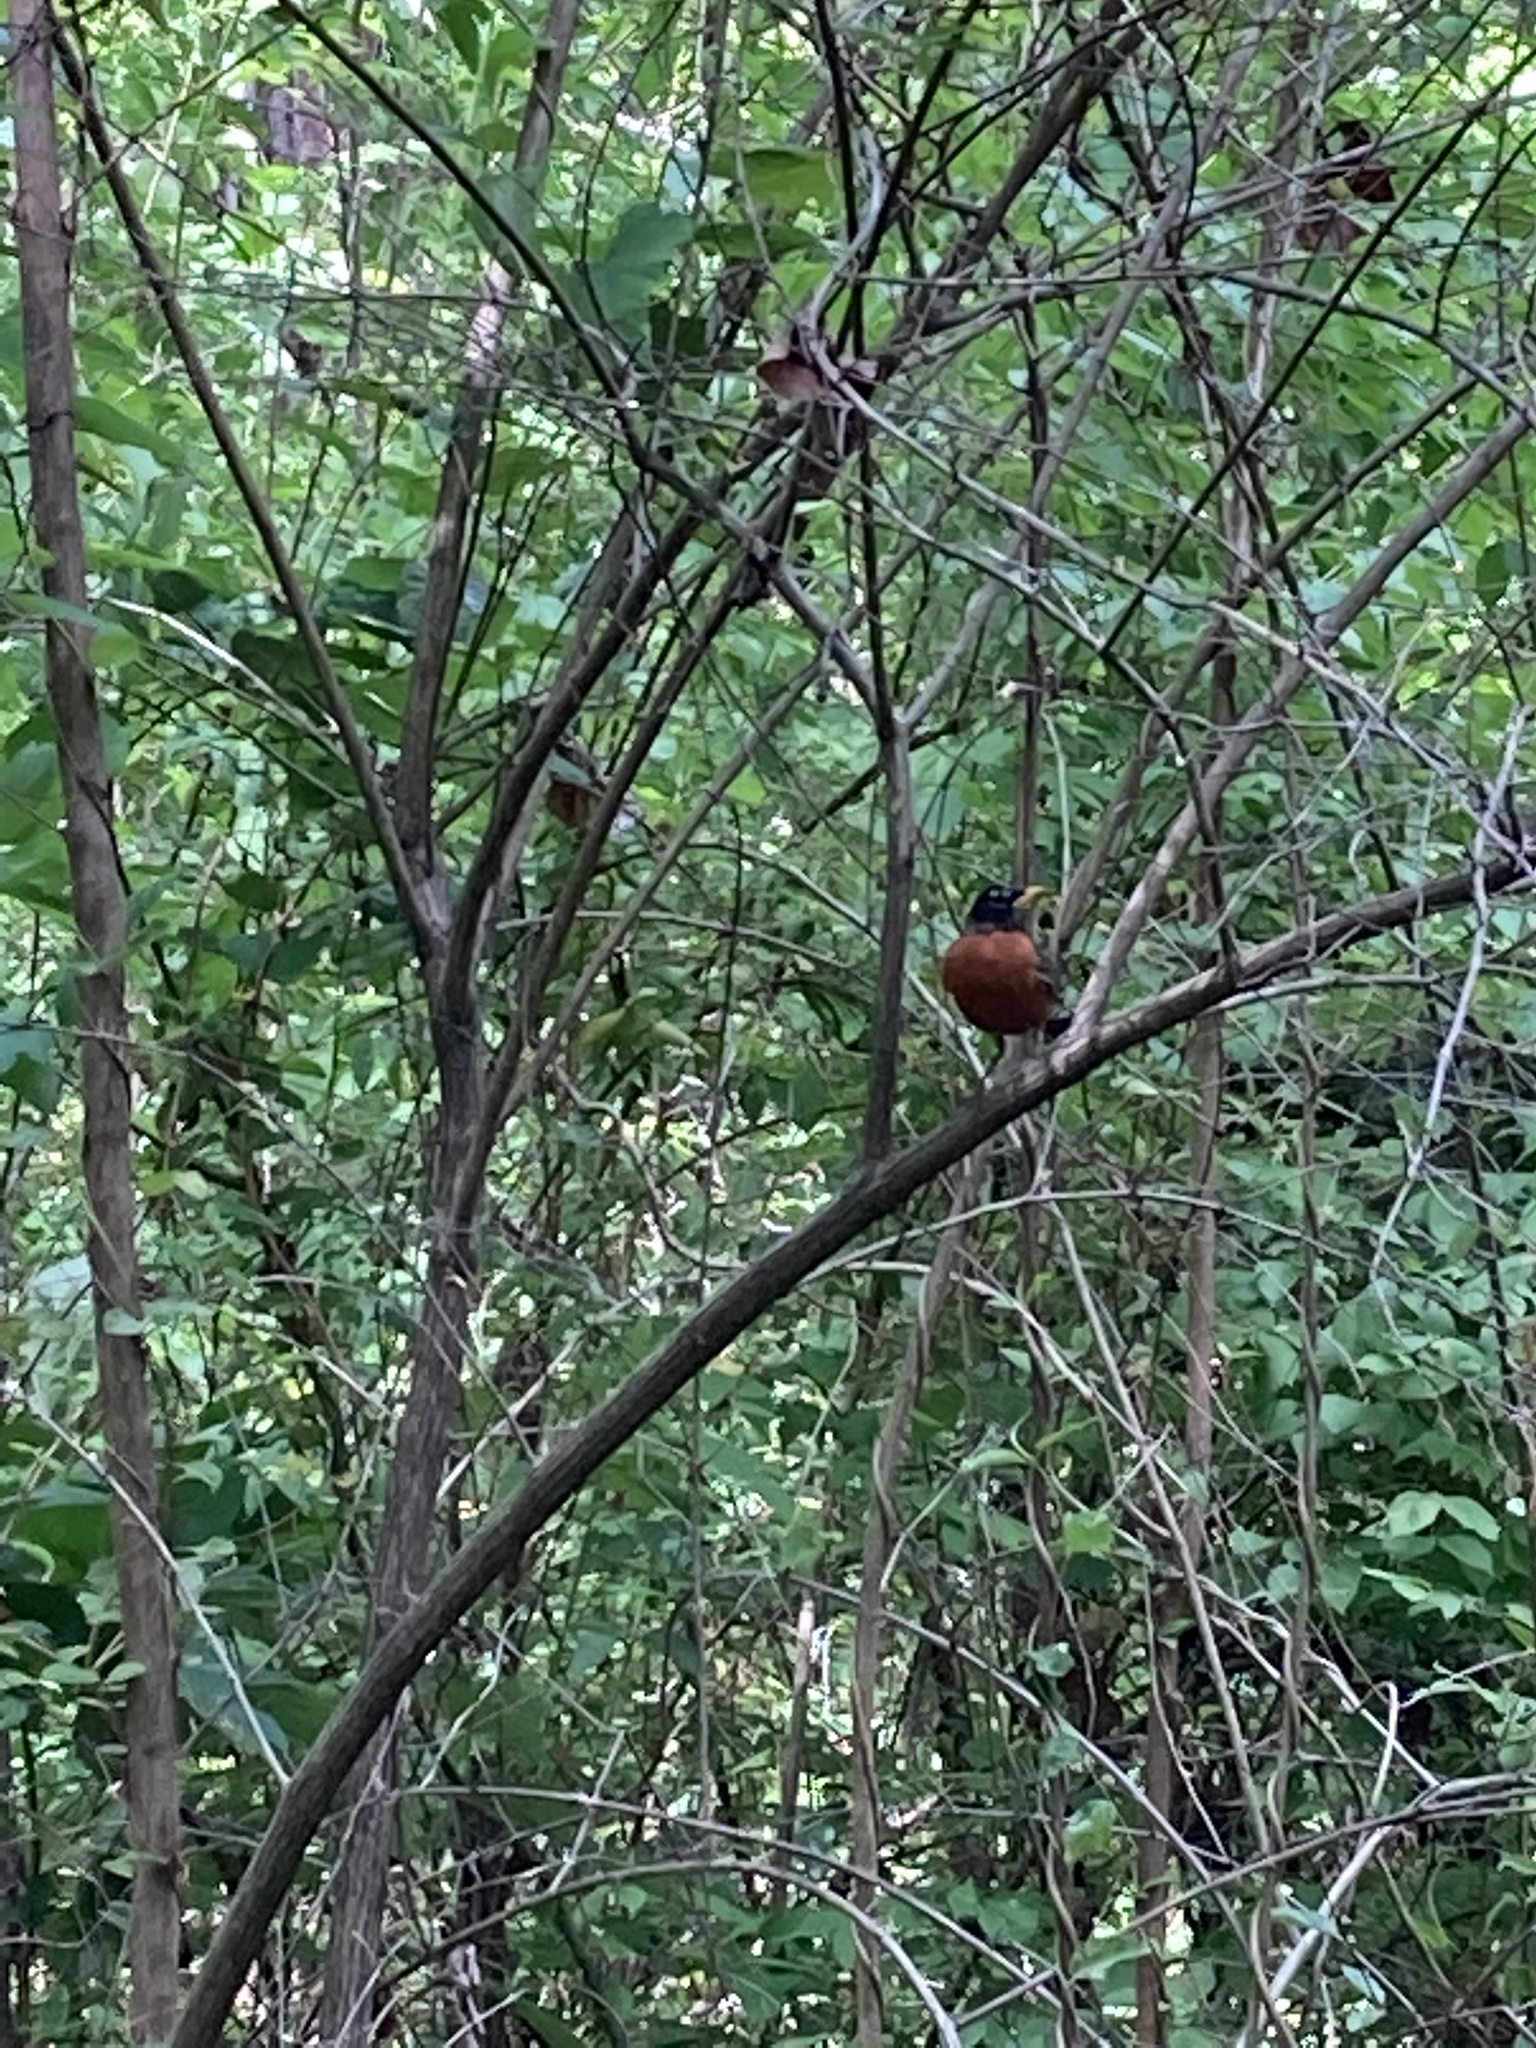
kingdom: Animalia
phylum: Chordata
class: Aves
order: Passeriformes
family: Turdidae
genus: Turdus
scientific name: Turdus migratorius
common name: American robin
